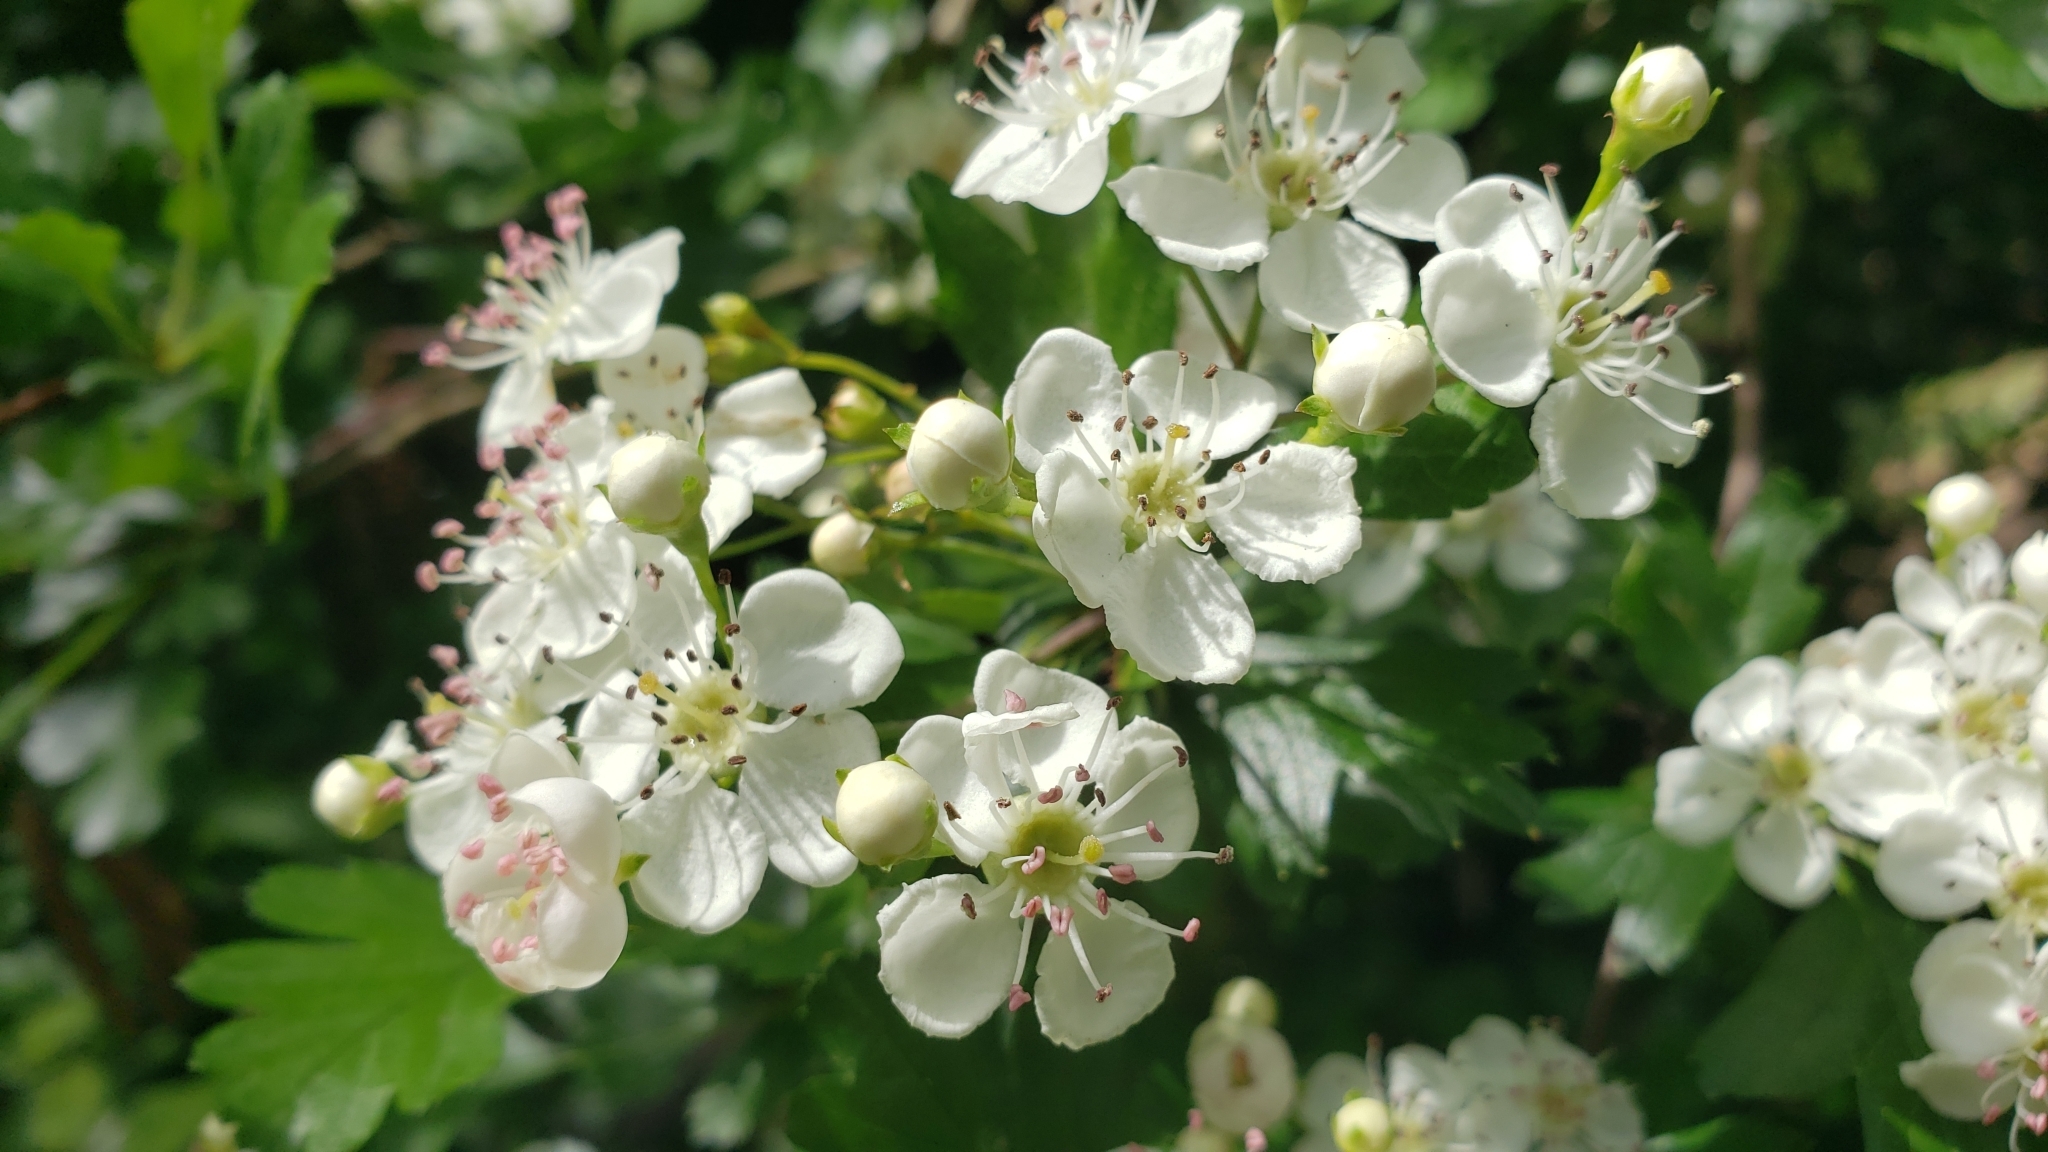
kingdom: Plantae
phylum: Tracheophyta
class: Magnoliopsida
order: Rosales
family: Rosaceae
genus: Crataegus
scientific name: Crataegus monogyna
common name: Hawthorn
